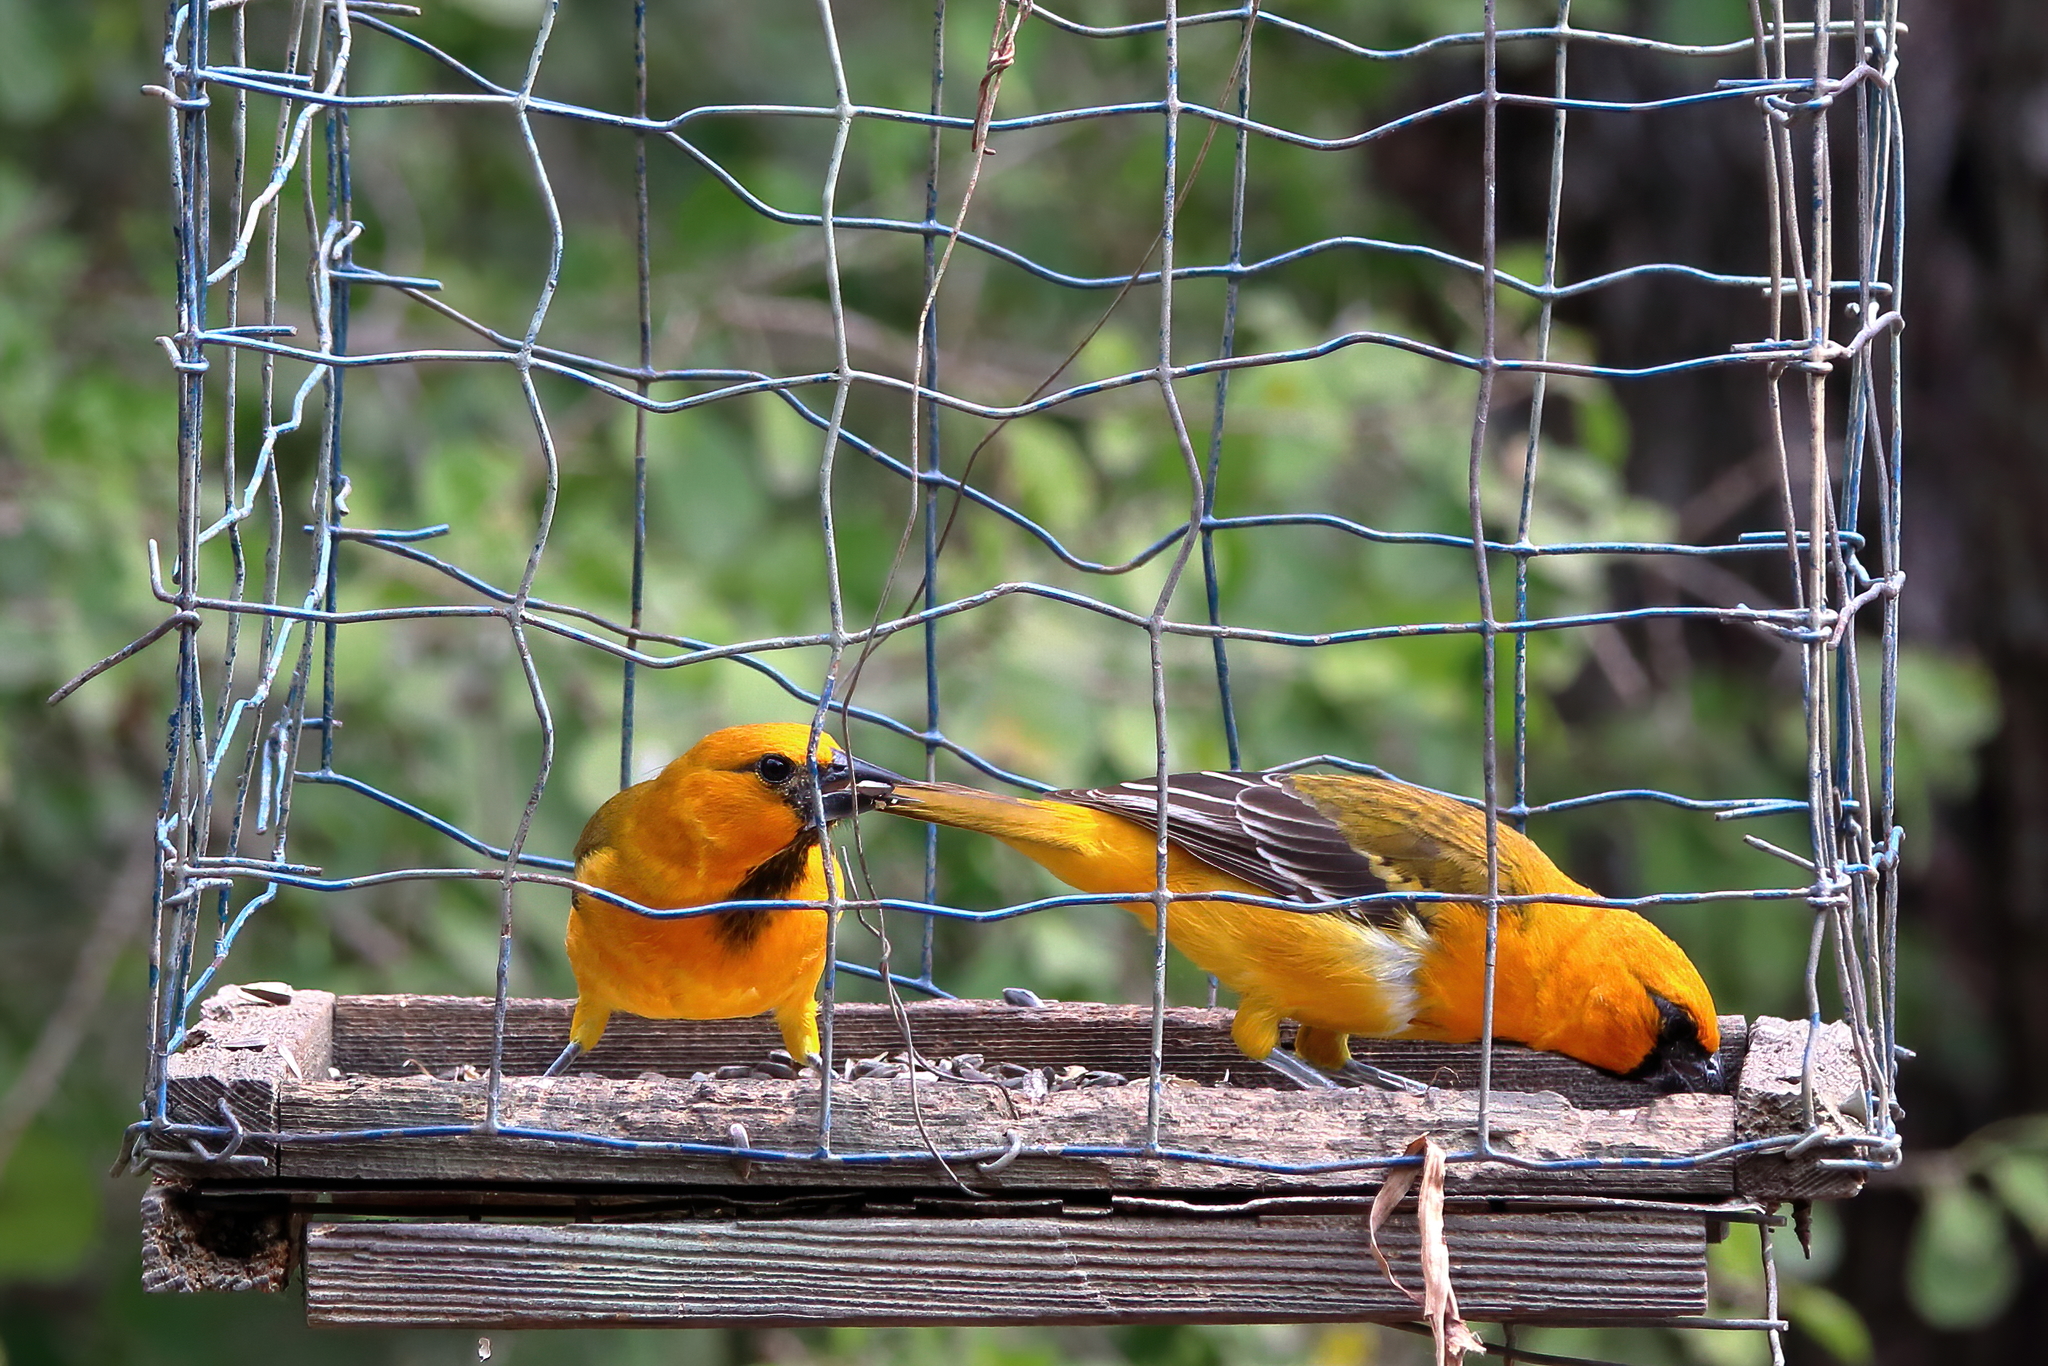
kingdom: Animalia
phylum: Chordata
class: Aves
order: Passeriformes
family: Icteridae
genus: Icterus
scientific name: Icterus gularis
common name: Altamira oriole
